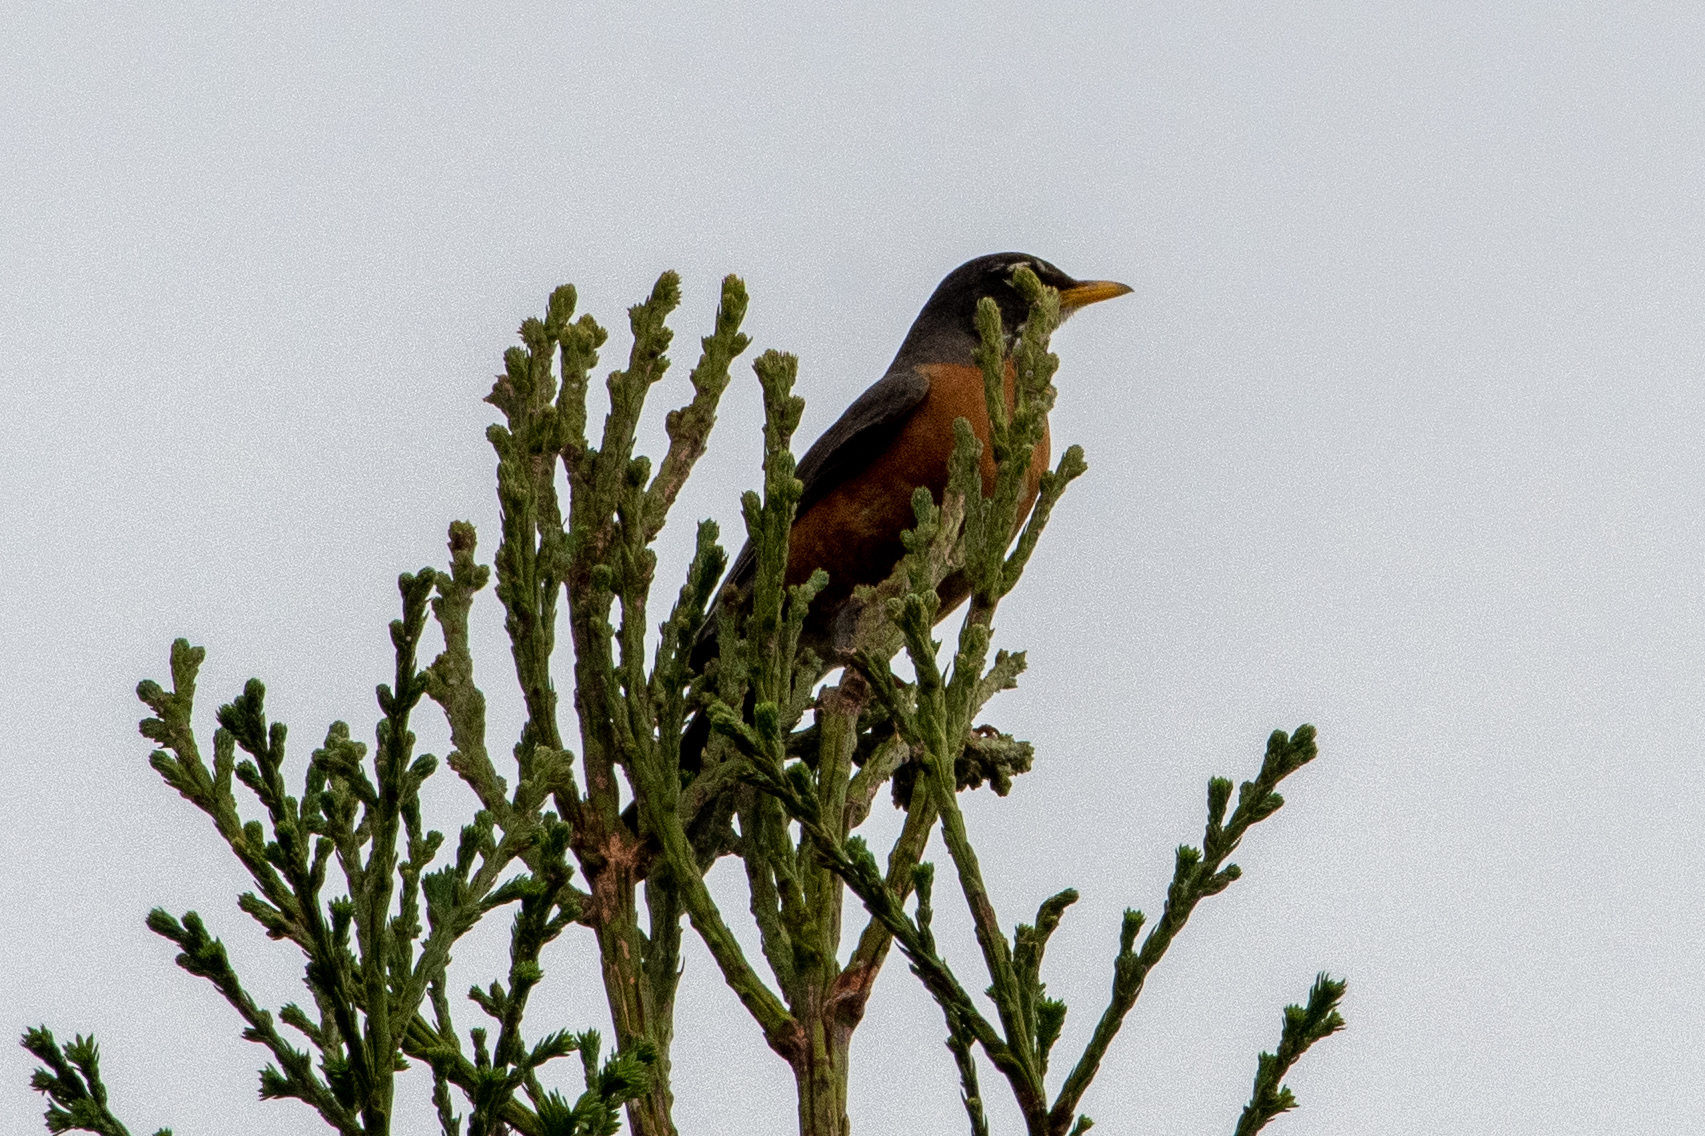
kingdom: Animalia
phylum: Chordata
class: Aves
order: Passeriformes
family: Turdidae
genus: Turdus
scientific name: Turdus migratorius
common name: American robin
